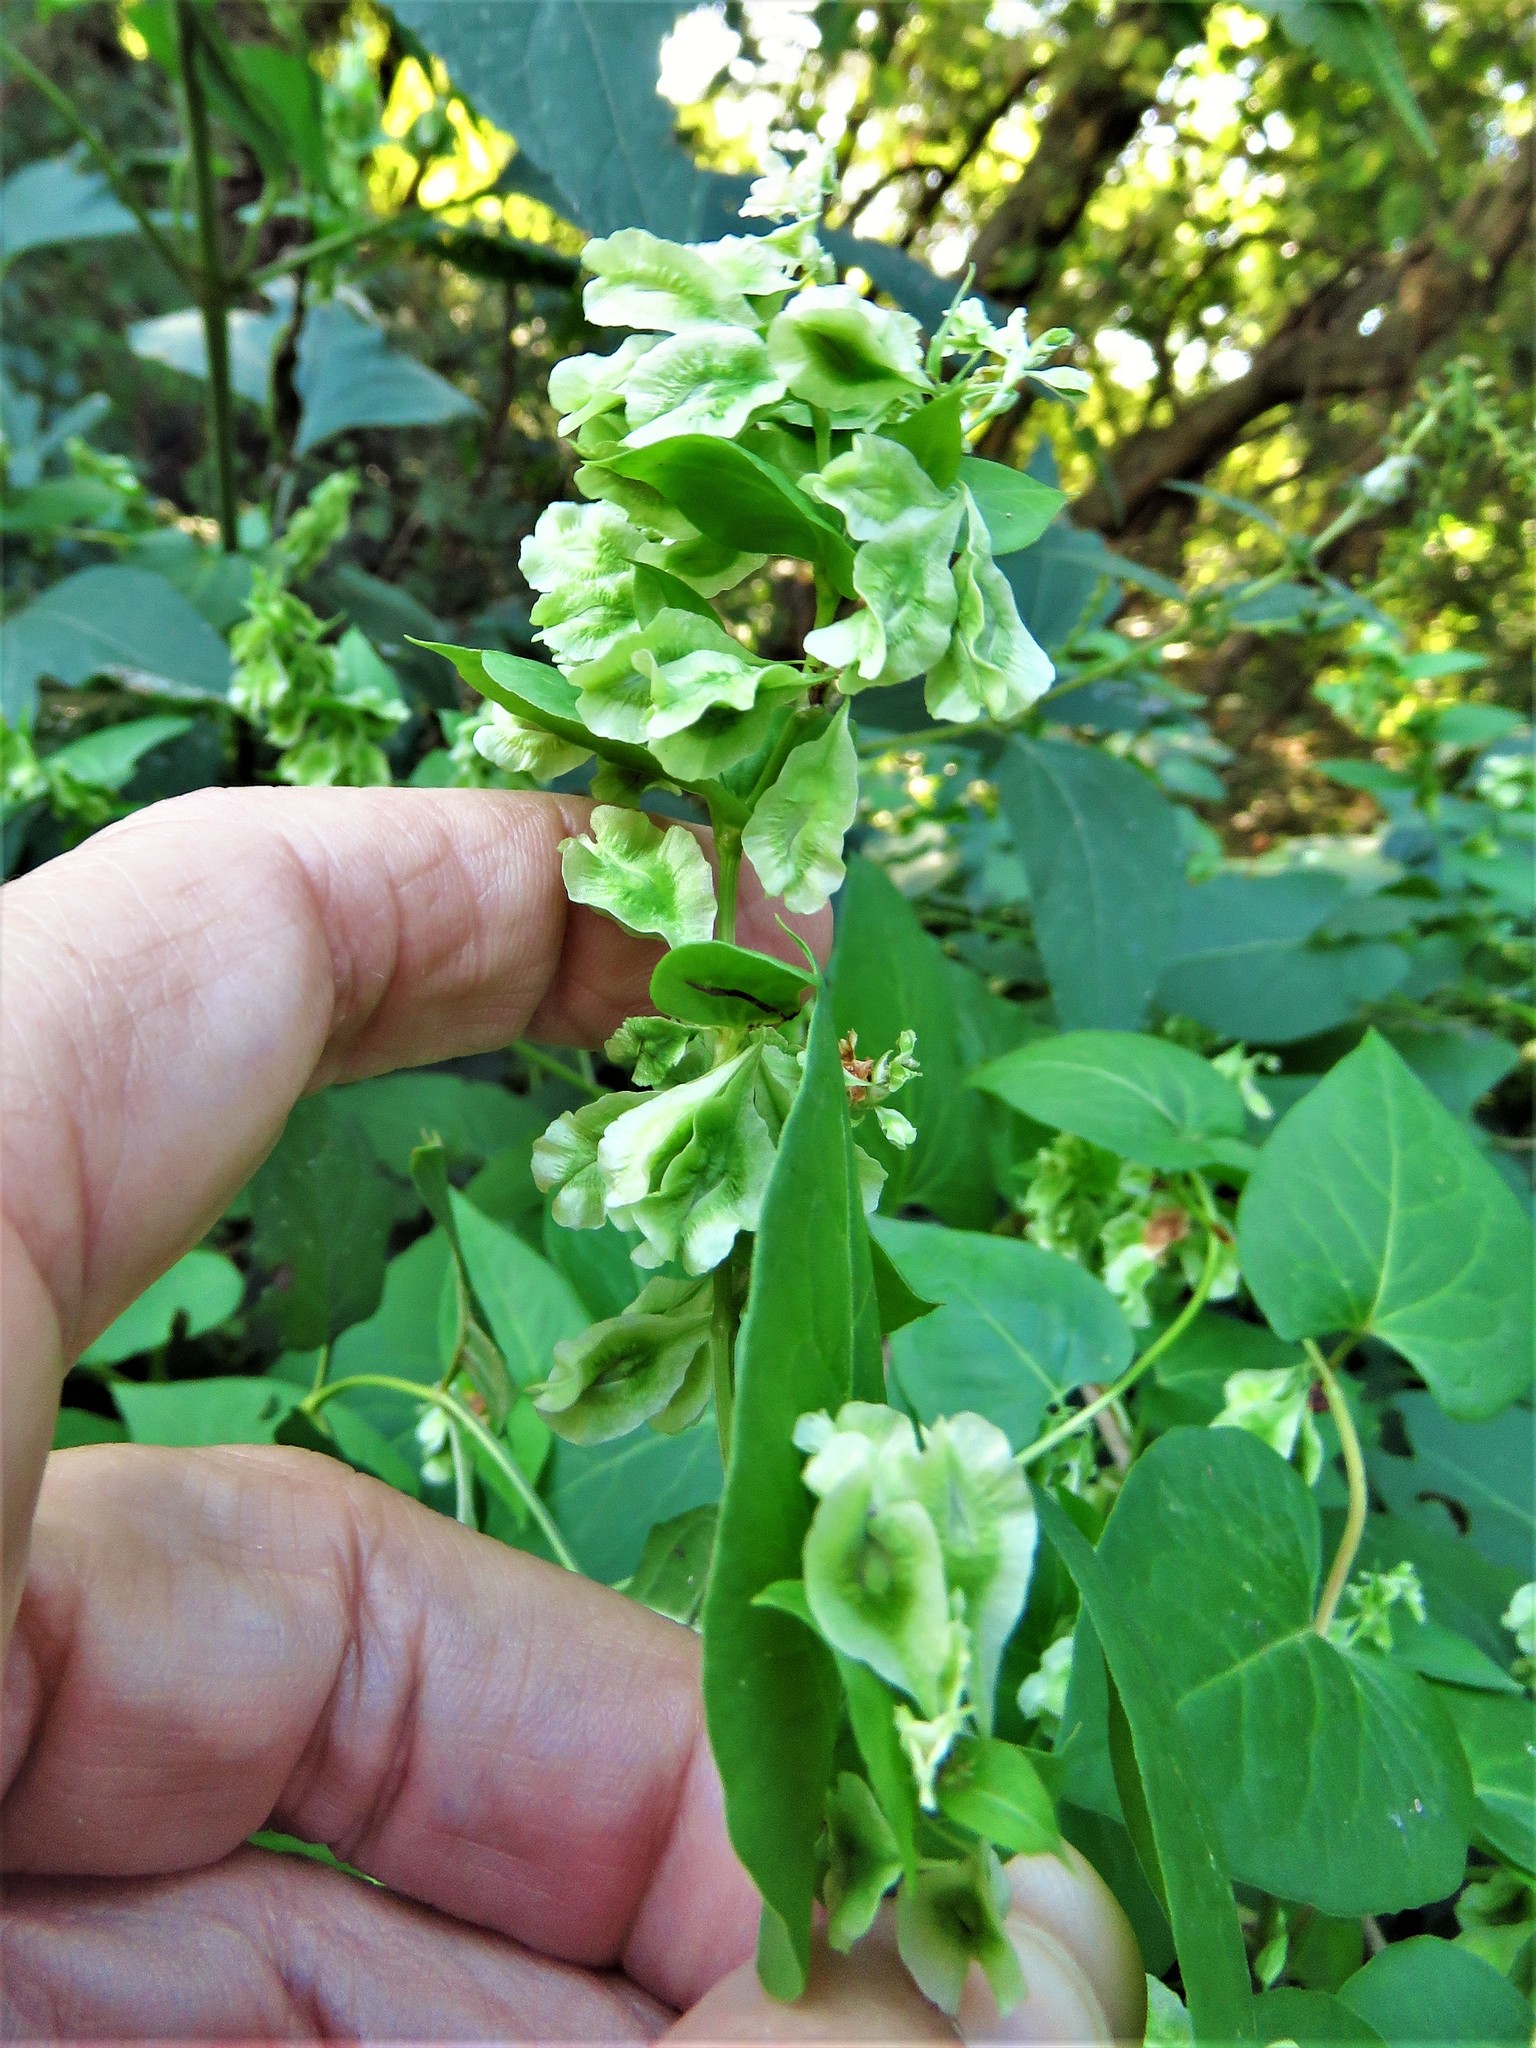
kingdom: Plantae
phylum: Tracheophyta
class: Magnoliopsida
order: Caryophyllales
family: Polygonaceae
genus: Fallopia
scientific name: Fallopia scandens
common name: Climbing false buckwheat
